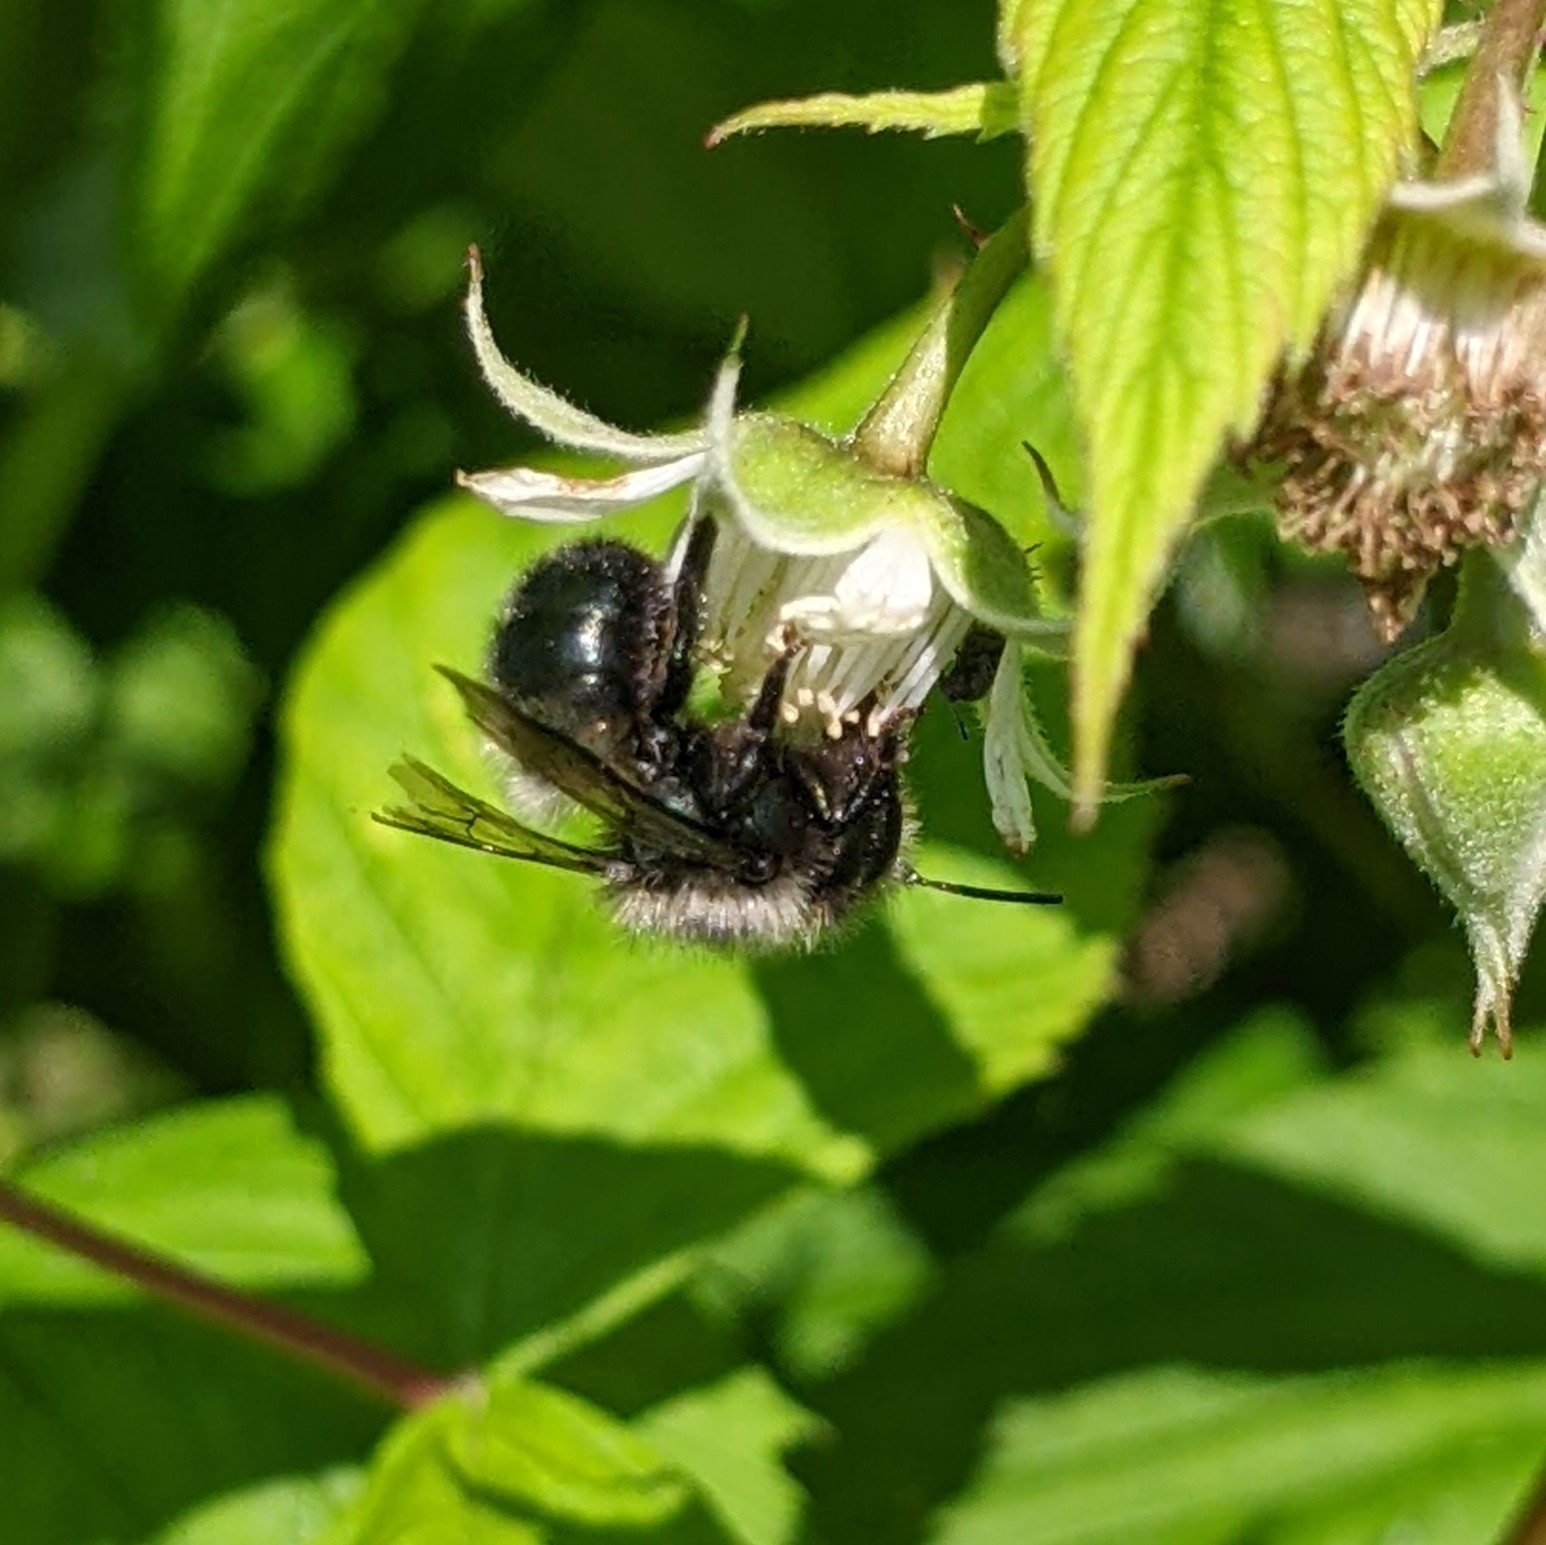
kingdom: Animalia
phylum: Arthropoda
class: Insecta
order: Hymenoptera
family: Megachilidae
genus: Osmia
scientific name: Osmia lignaria
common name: Blue orchard bee
